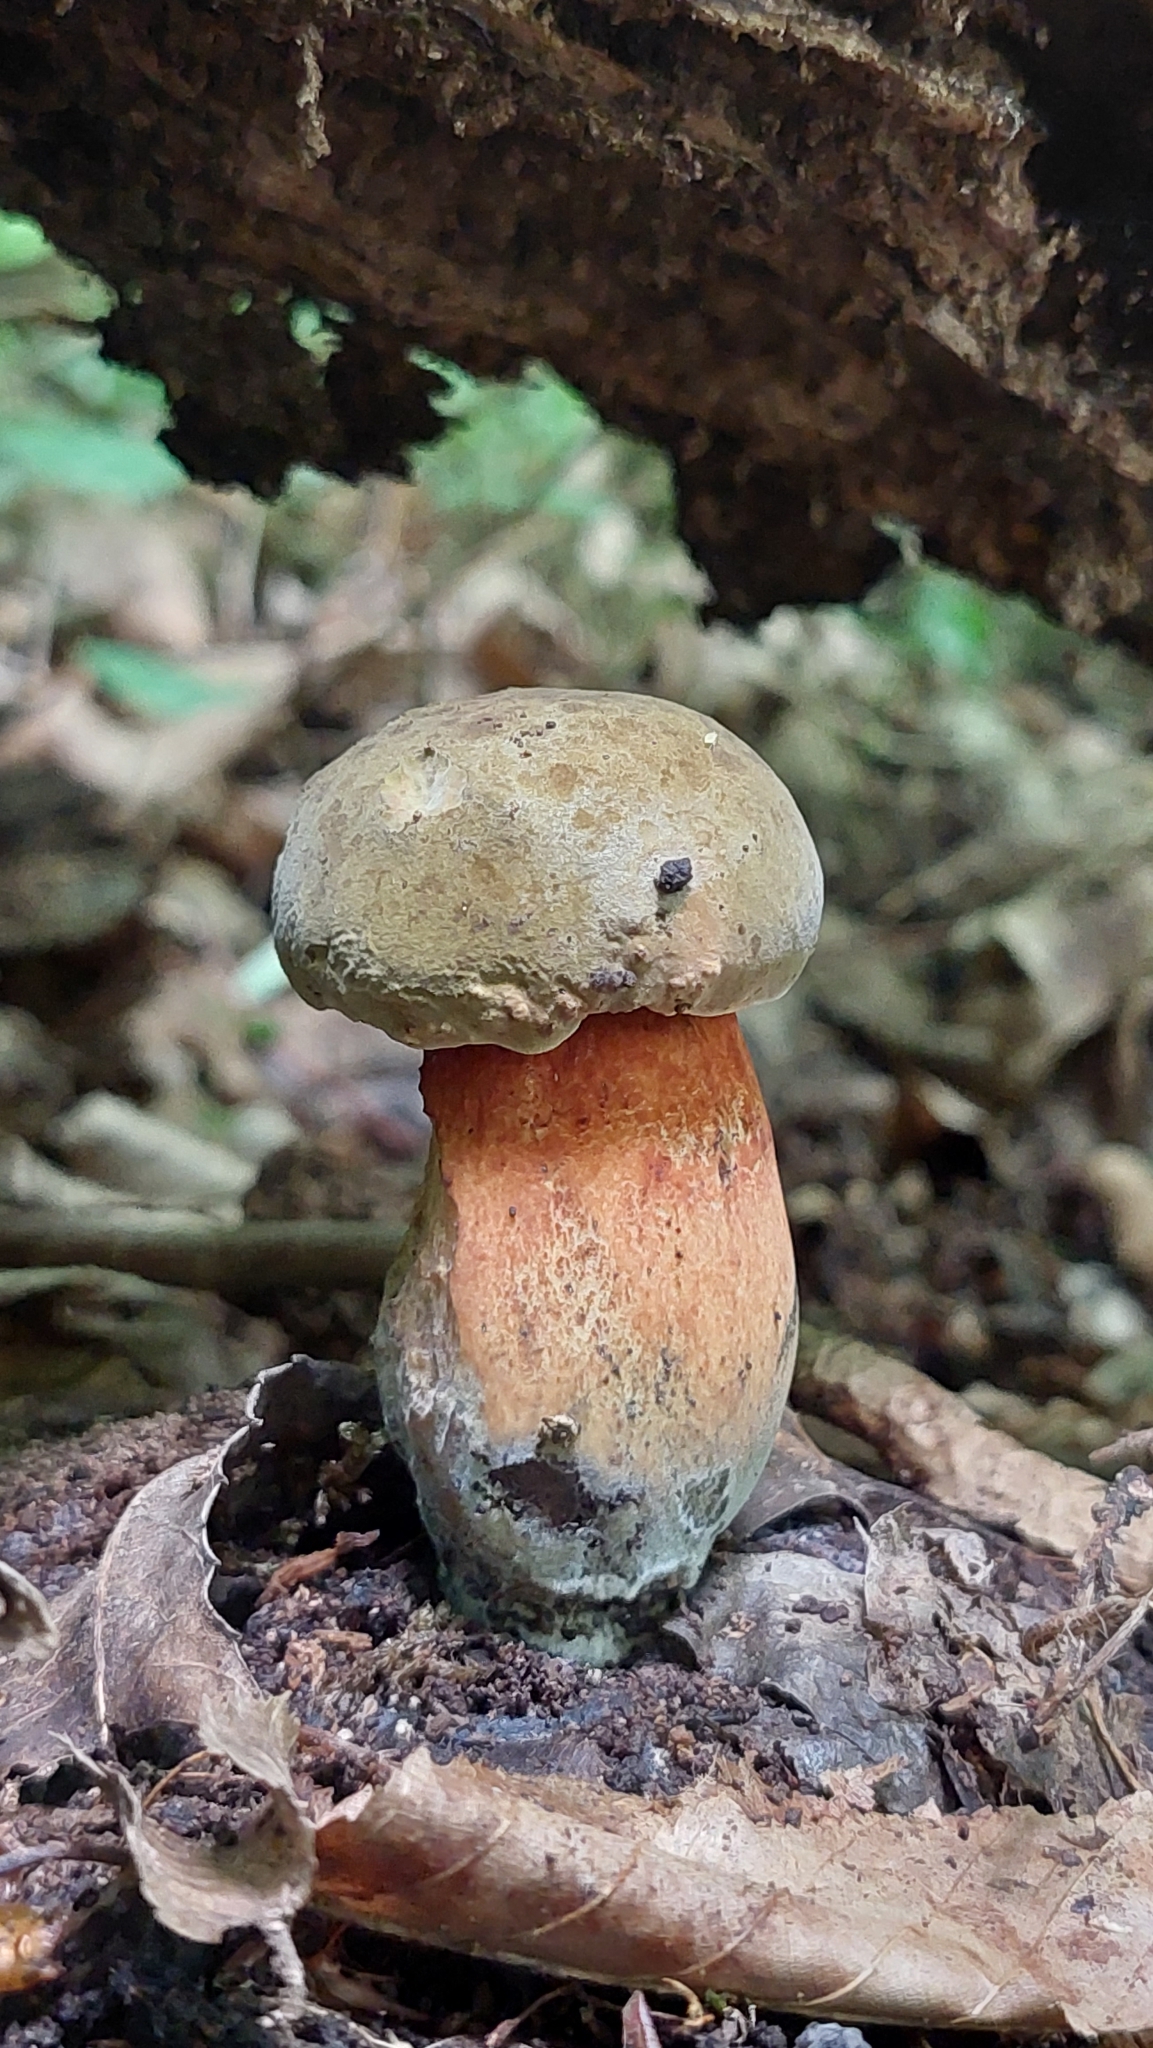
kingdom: Fungi
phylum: Basidiomycota
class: Agaricomycetes
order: Boletales
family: Boletaceae
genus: Suillellus
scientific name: Suillellus luridus
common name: Lurid bolete
